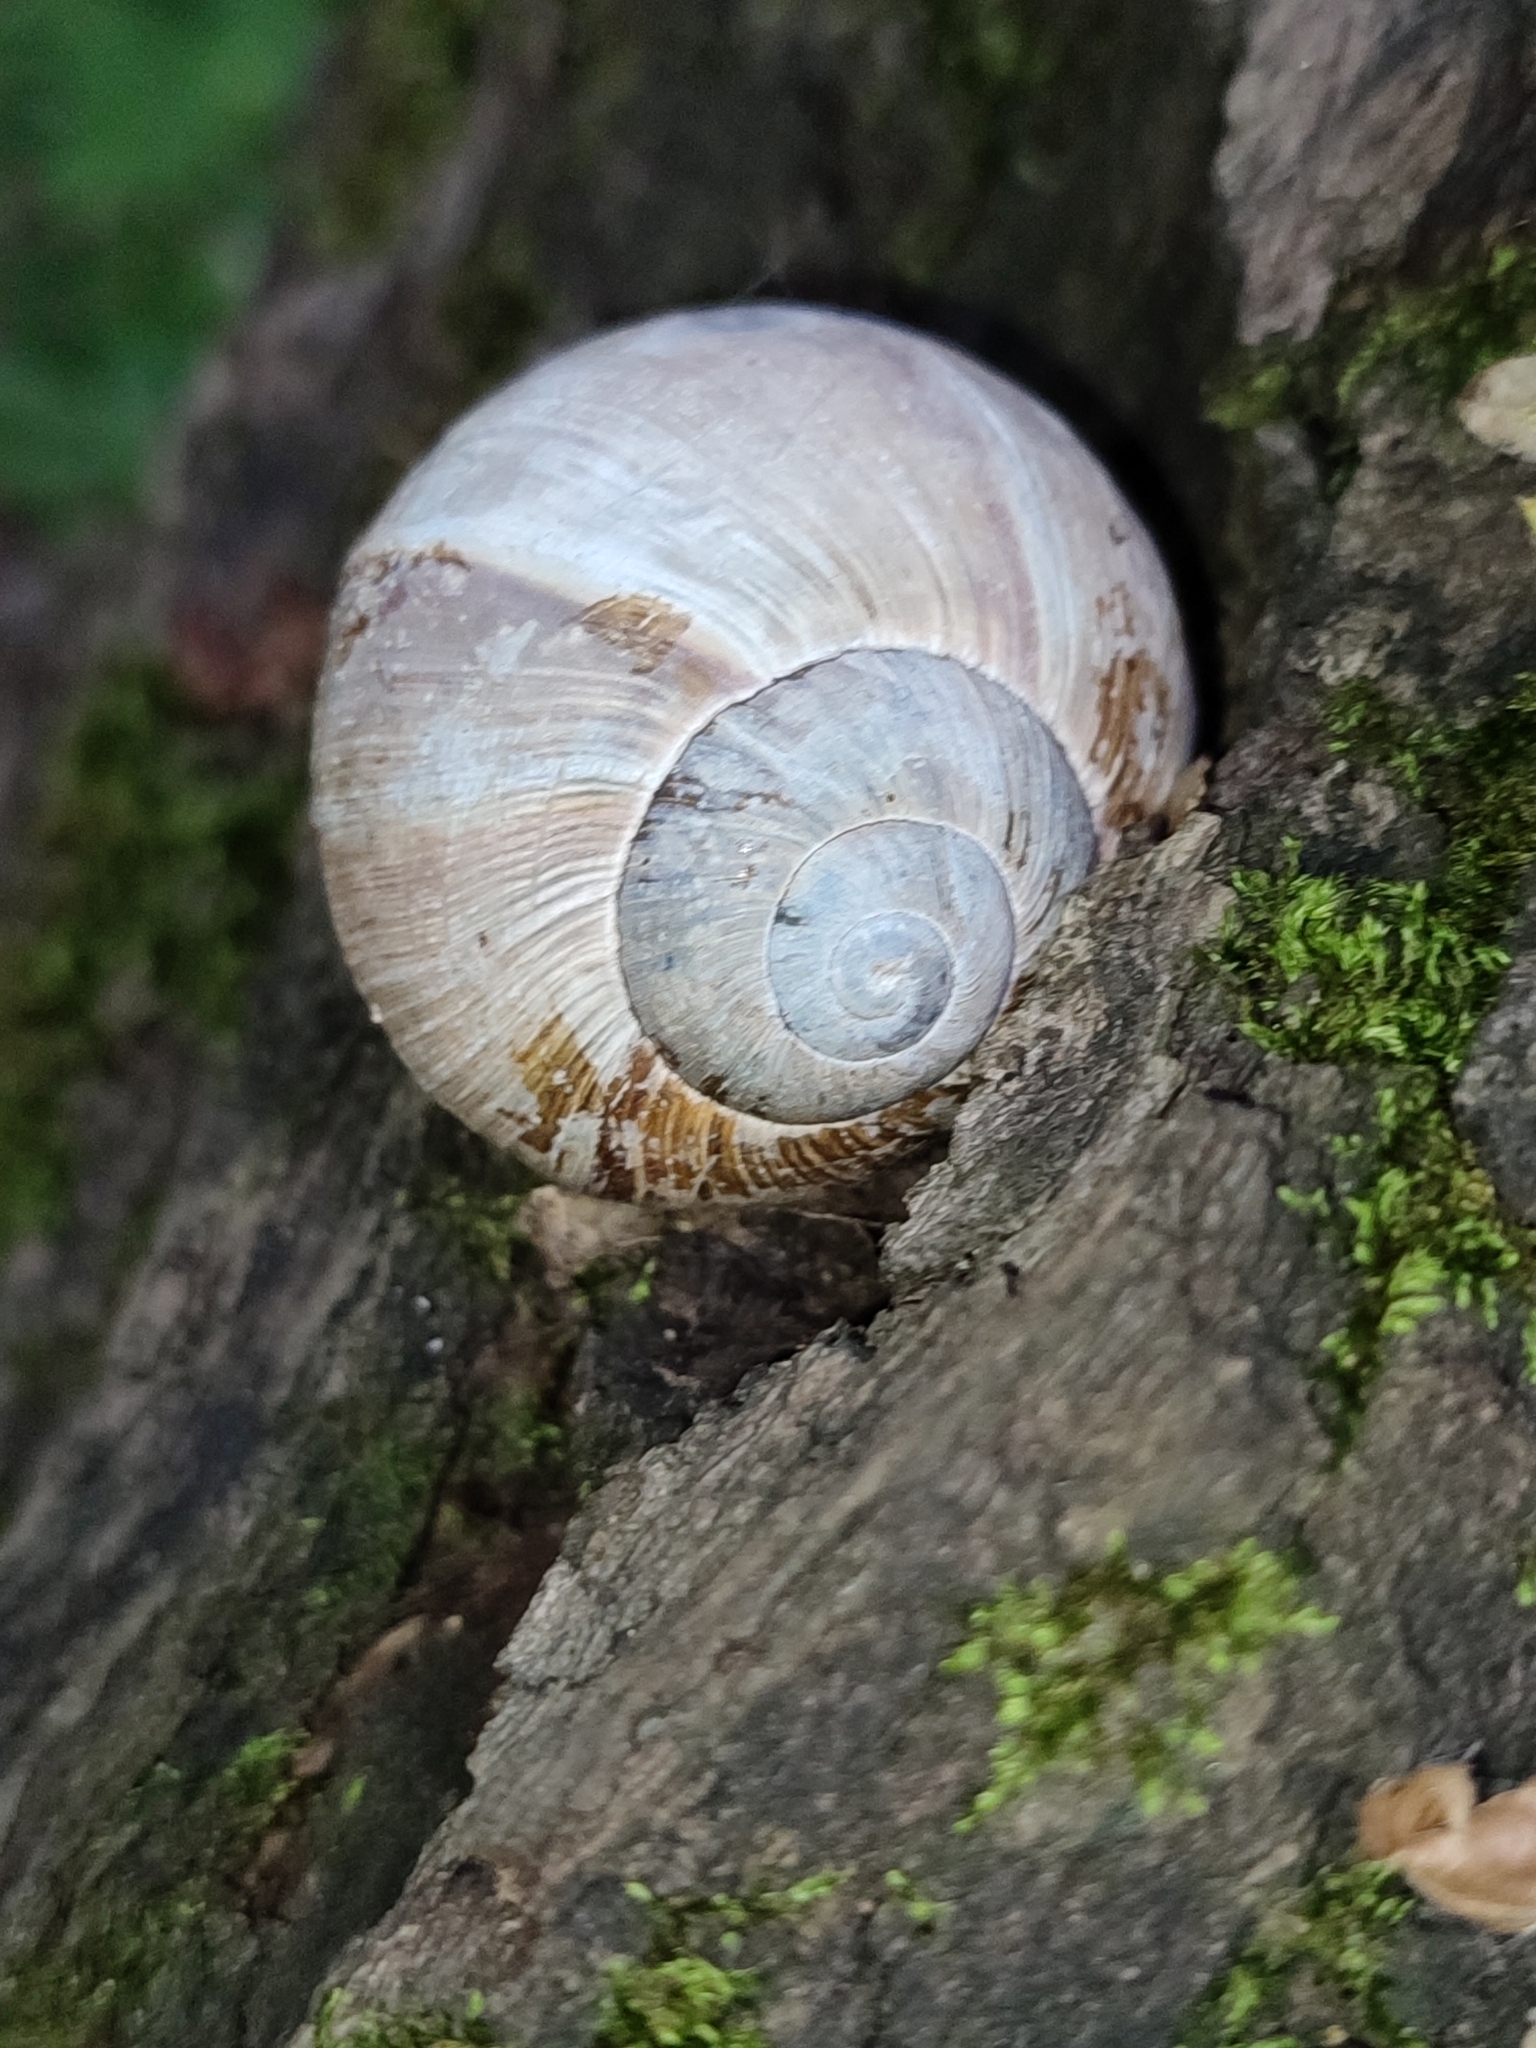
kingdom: Animalia
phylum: Mollusca
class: Gastropoda
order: Stylommatophora
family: Helicidae
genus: Helix
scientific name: Helix pomatia
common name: Roman snail
